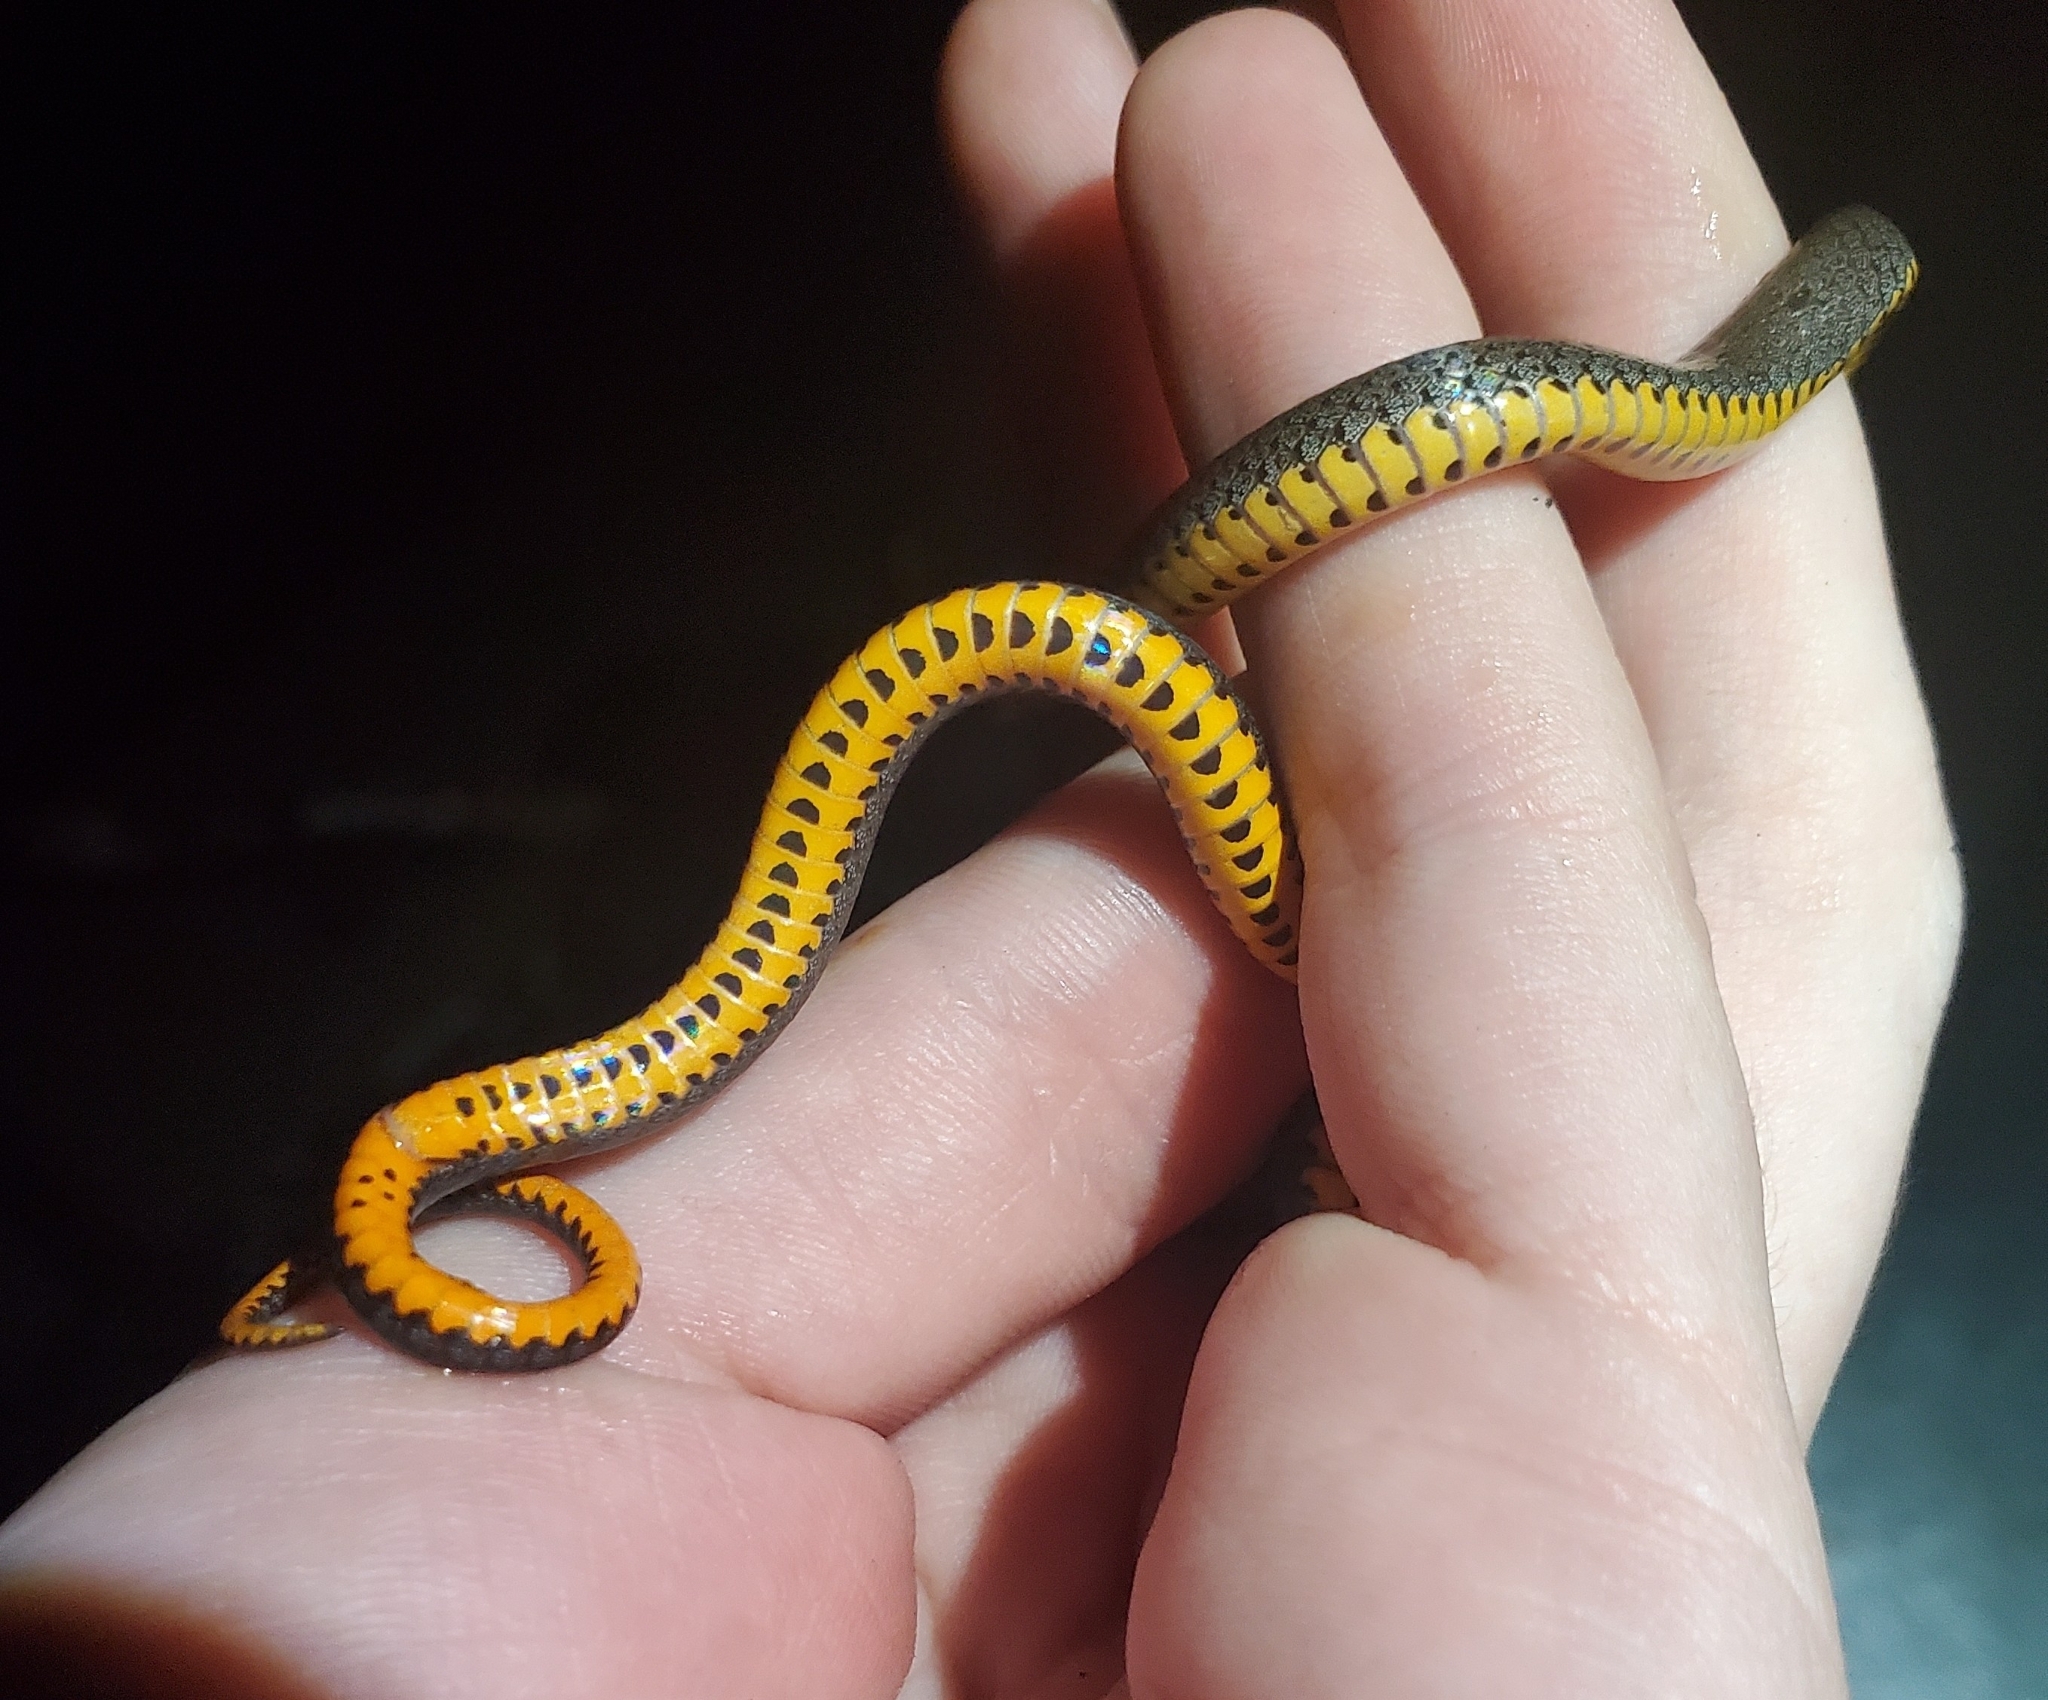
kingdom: Animalia
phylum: Chordata
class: Squamata
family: Colubridae
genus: Diadophis
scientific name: Diadophis punctatus
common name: Ringneck snake
